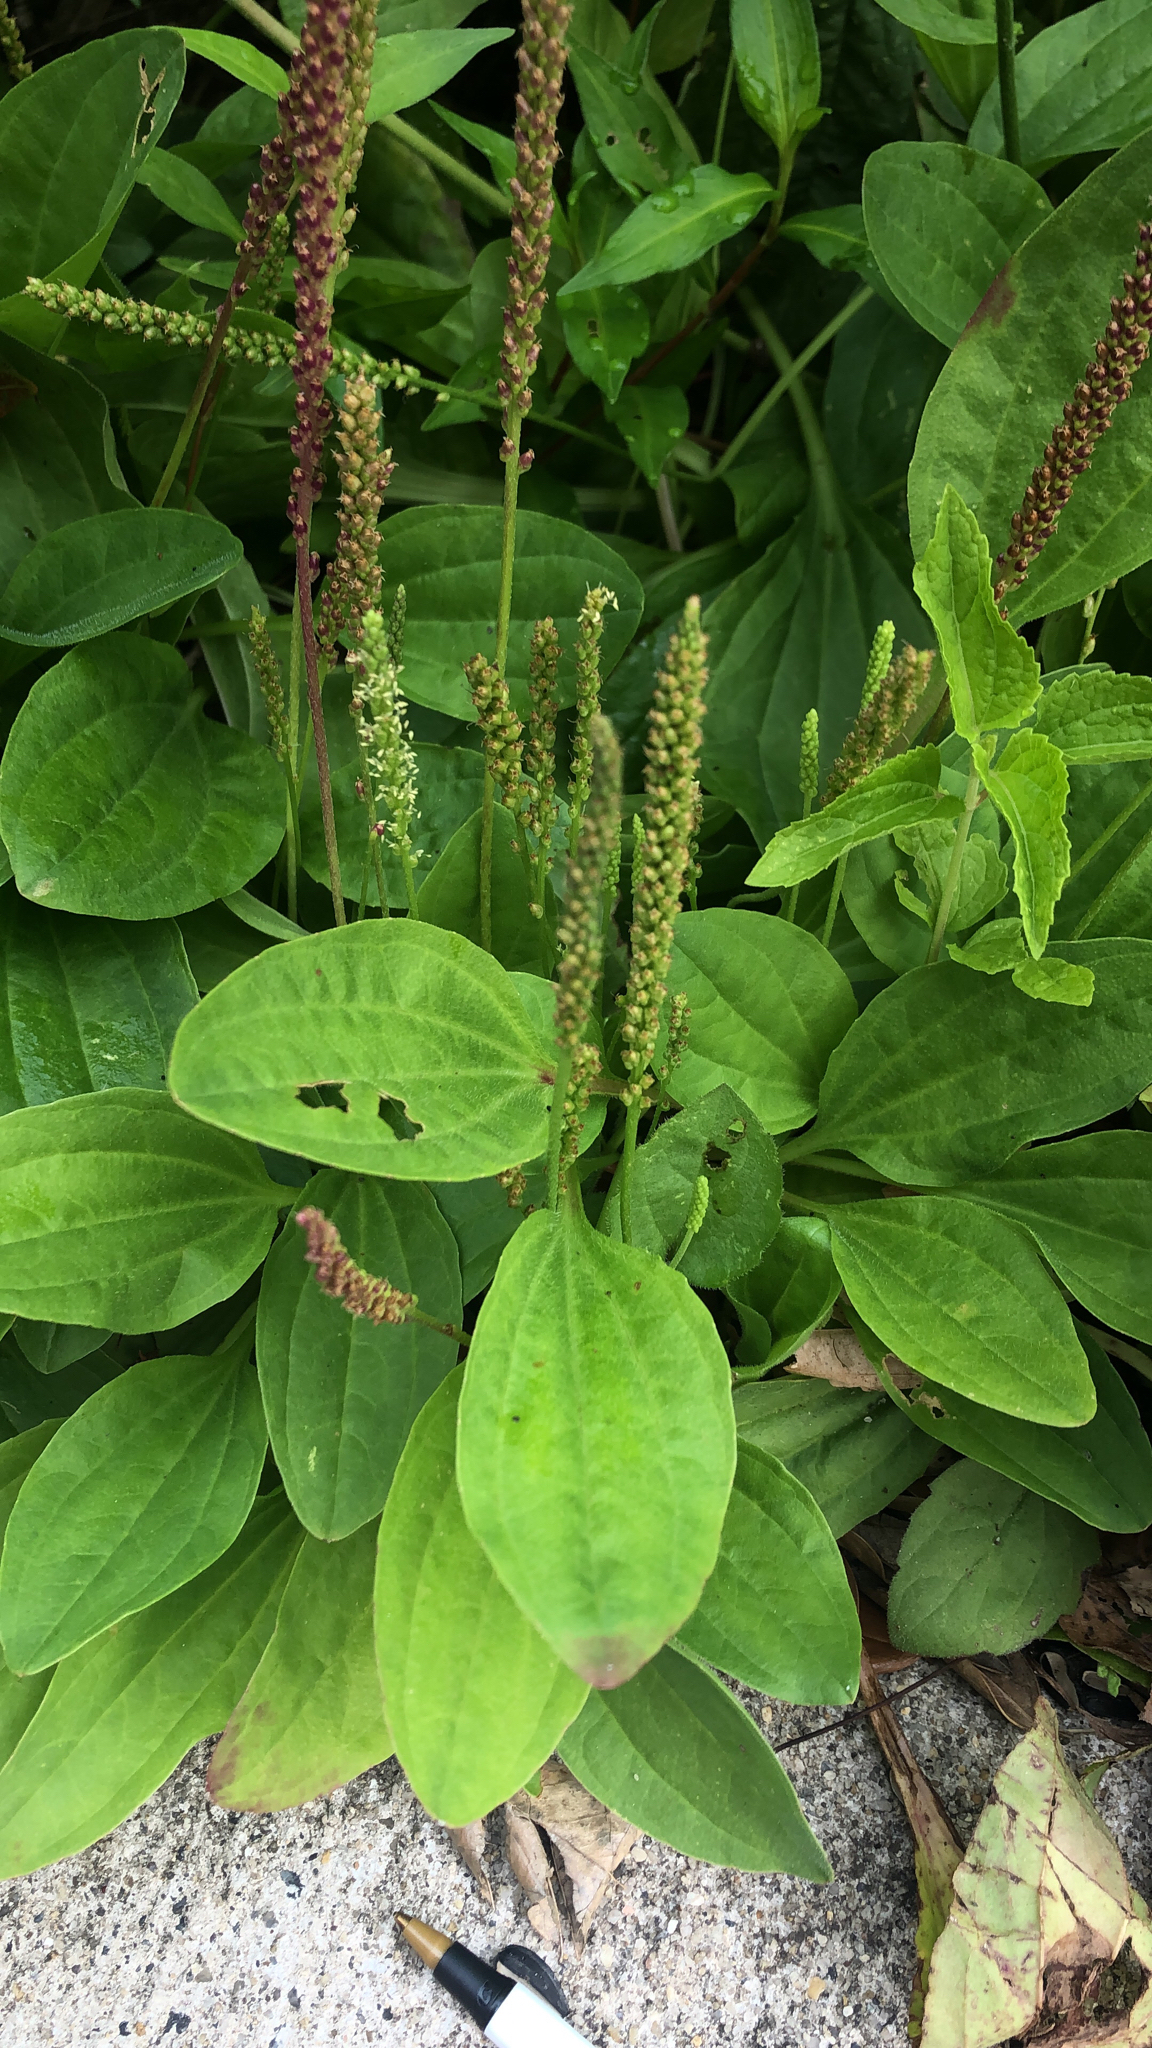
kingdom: Plantae
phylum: Tracheophyta
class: Magnoliopsida
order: Lamiales
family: Plantaginaceae
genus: Plantago
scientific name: Plantago major
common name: Common plantain
